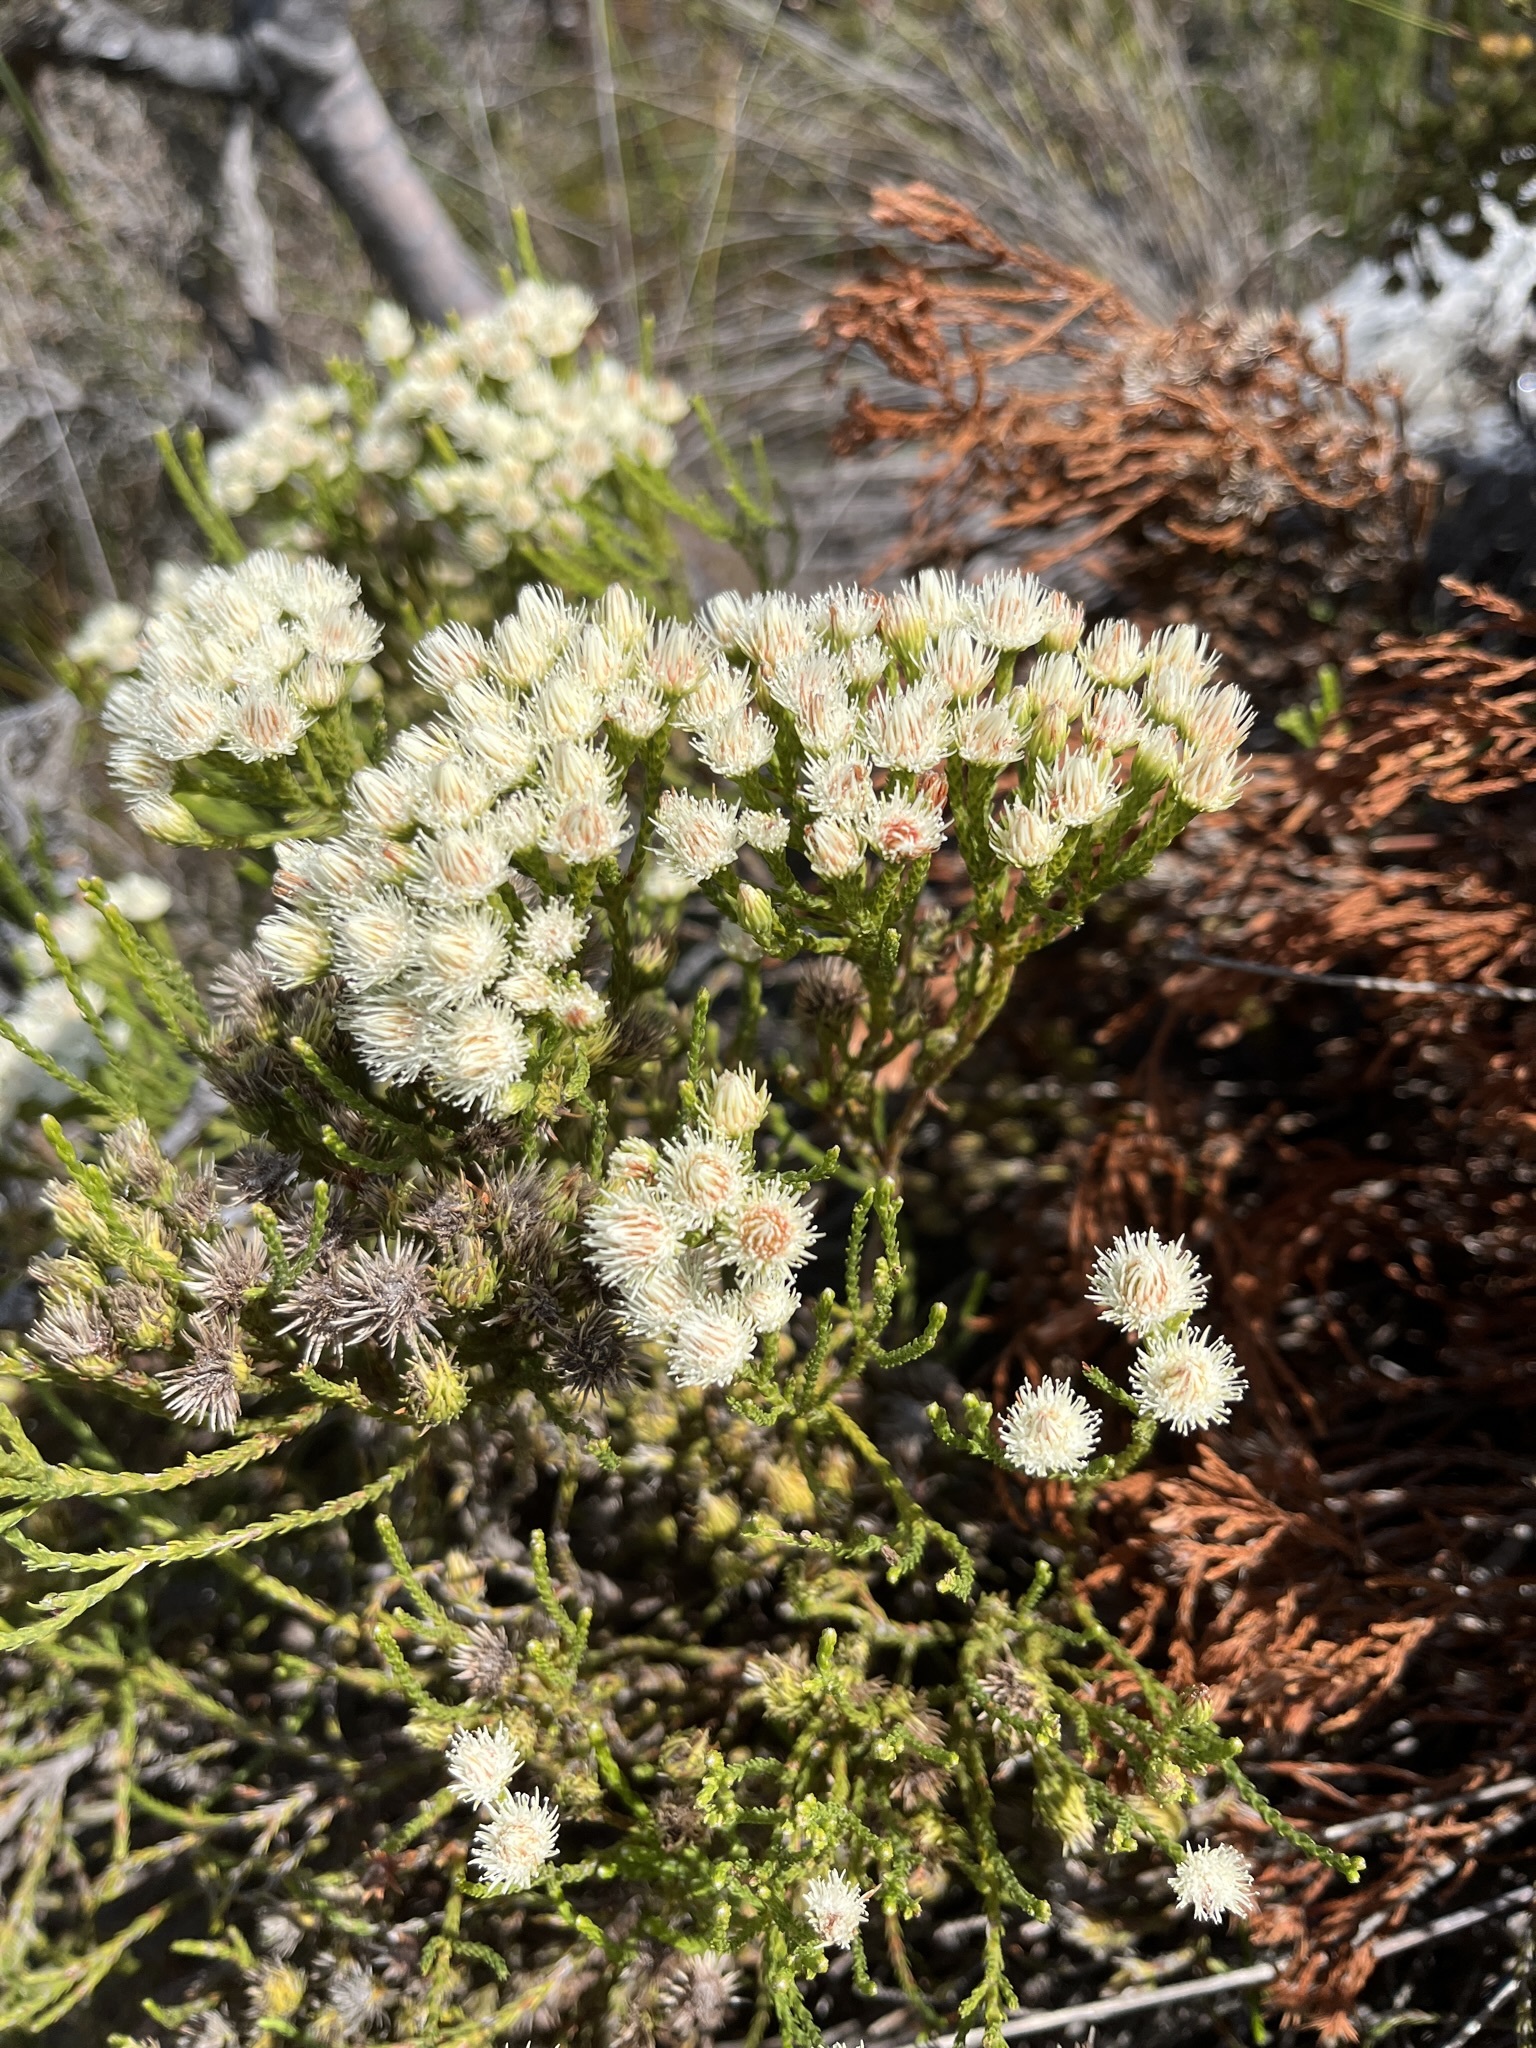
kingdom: Plantae
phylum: Tracheophyta
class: Magnoliopsida
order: Bruniales
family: Bruniaceae
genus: Brunia
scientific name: Brunia paleacea
